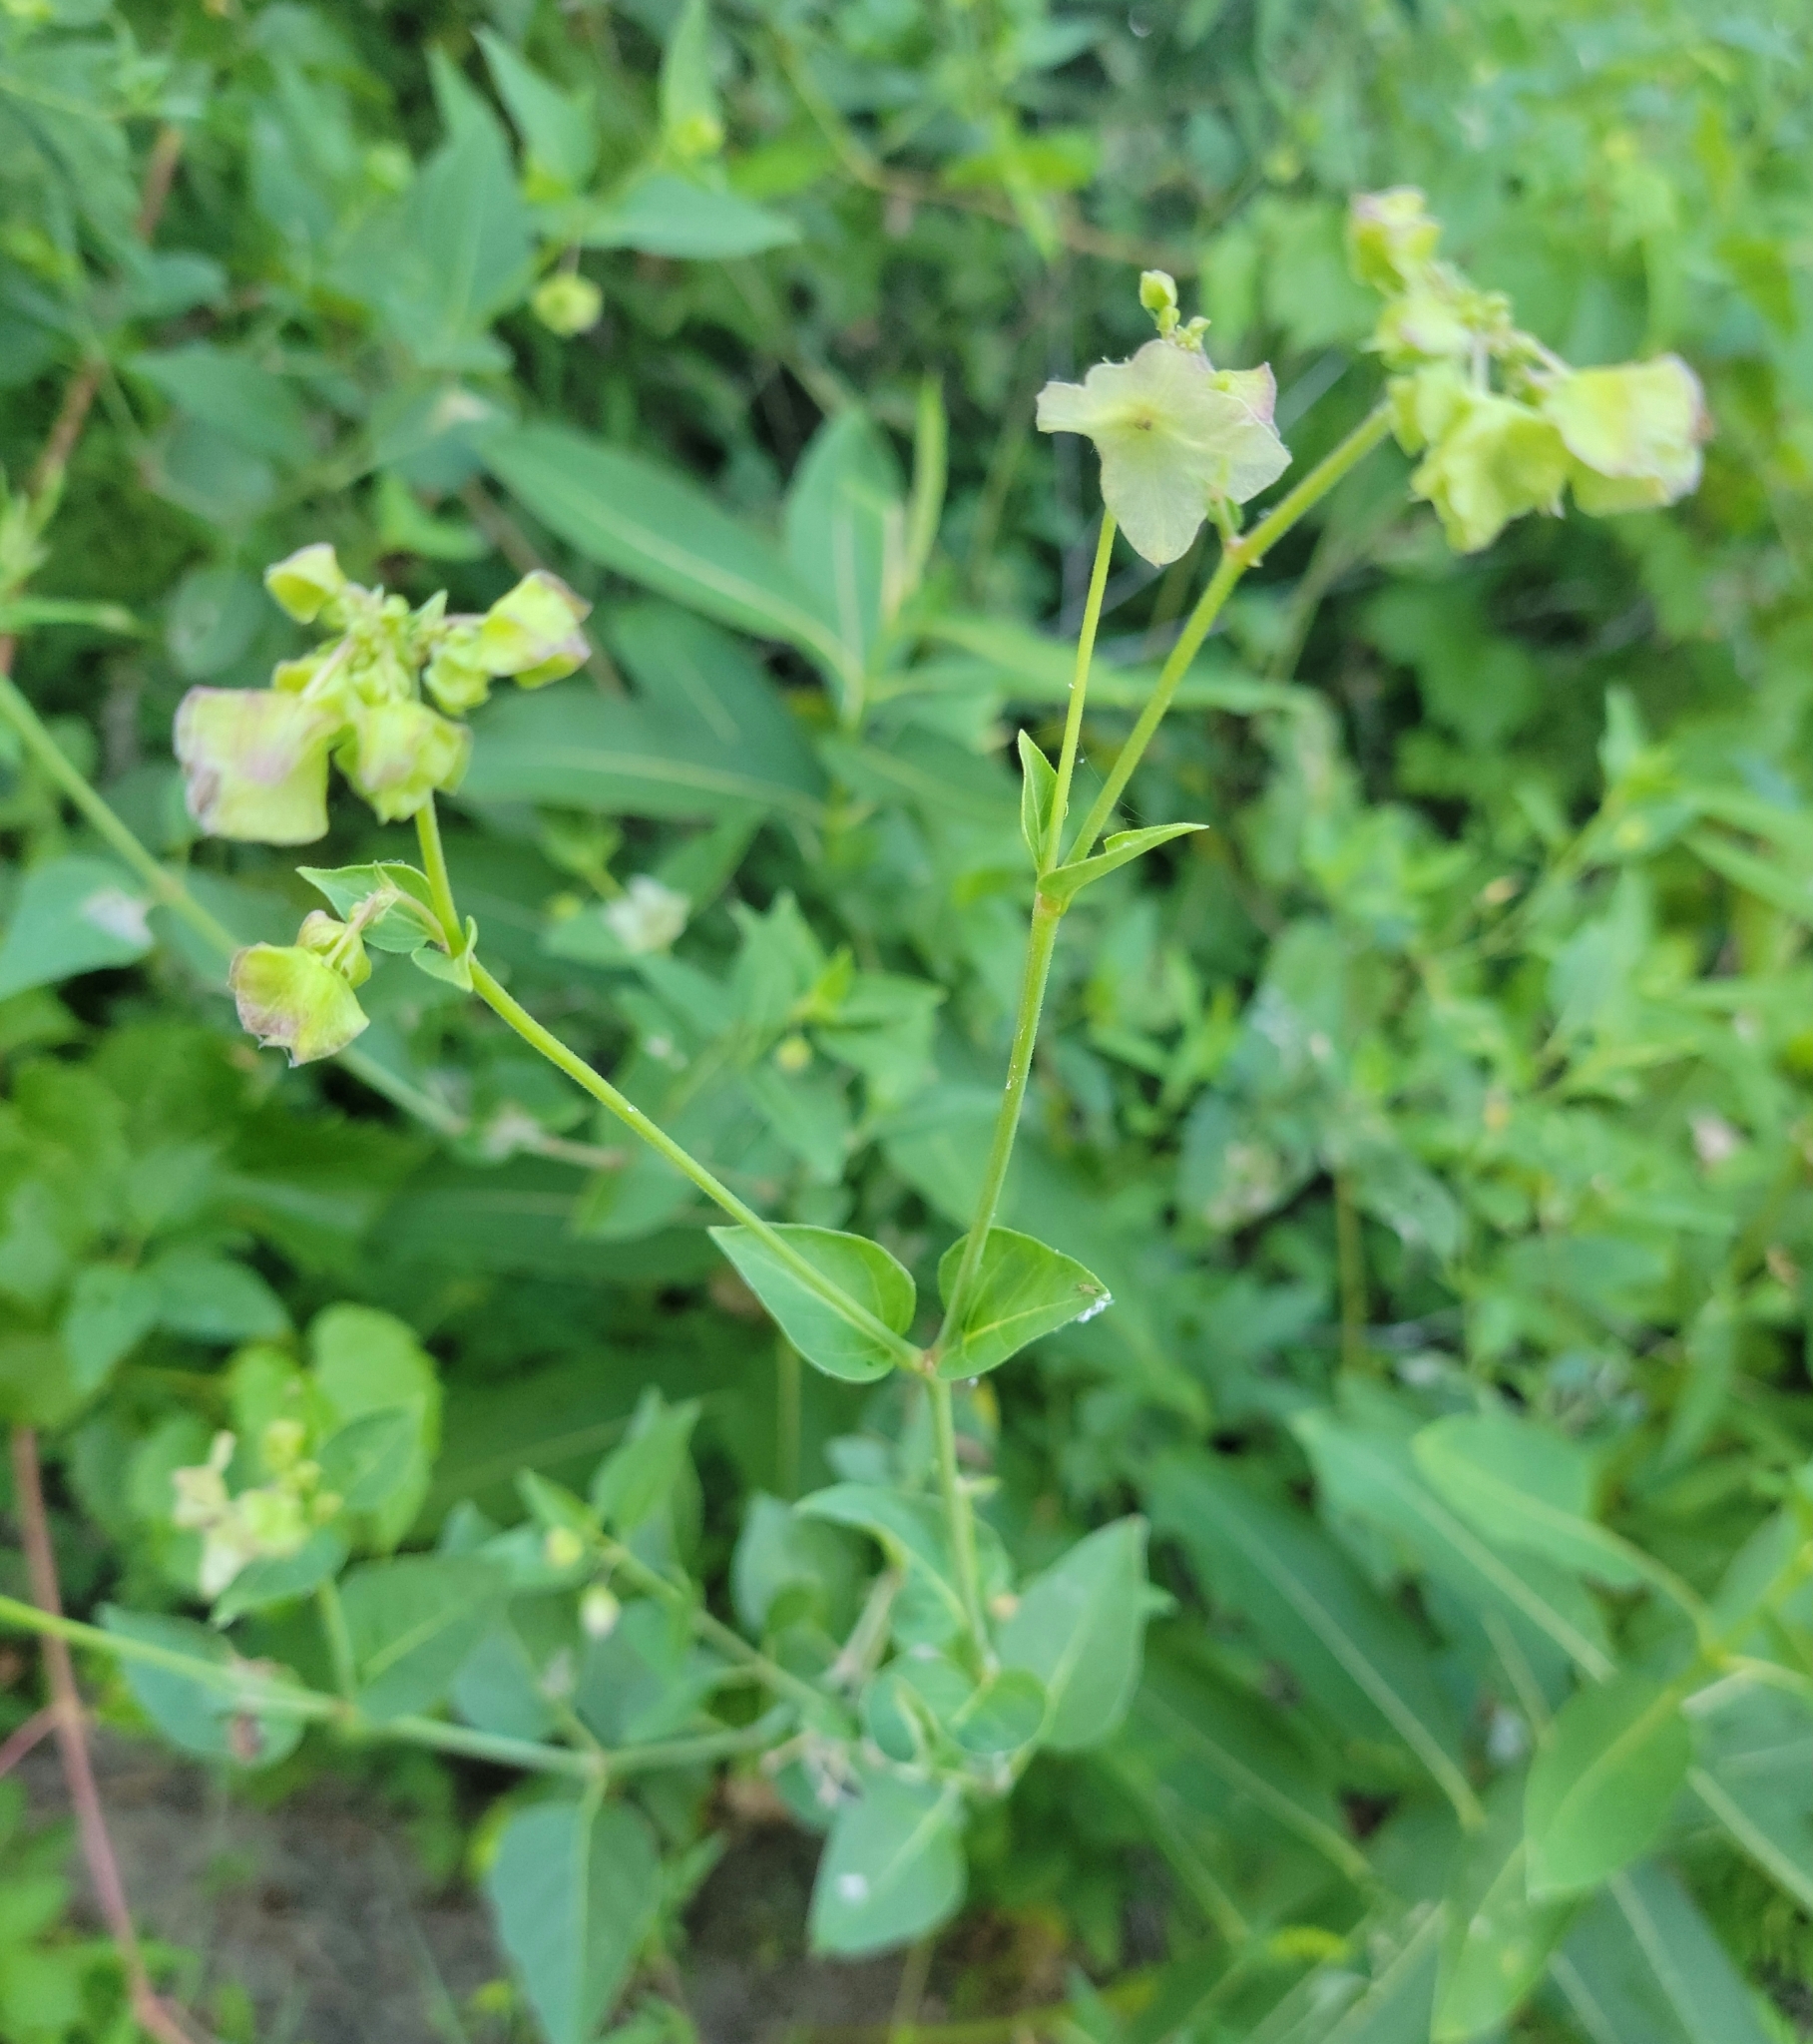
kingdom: Plantae
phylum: Tracheophyta
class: Magnoliopsida
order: Caryophyllales
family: Nyctaginaceae
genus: Mirabilis
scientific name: Mirabilis nyctaginea
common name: Umbrella wort
